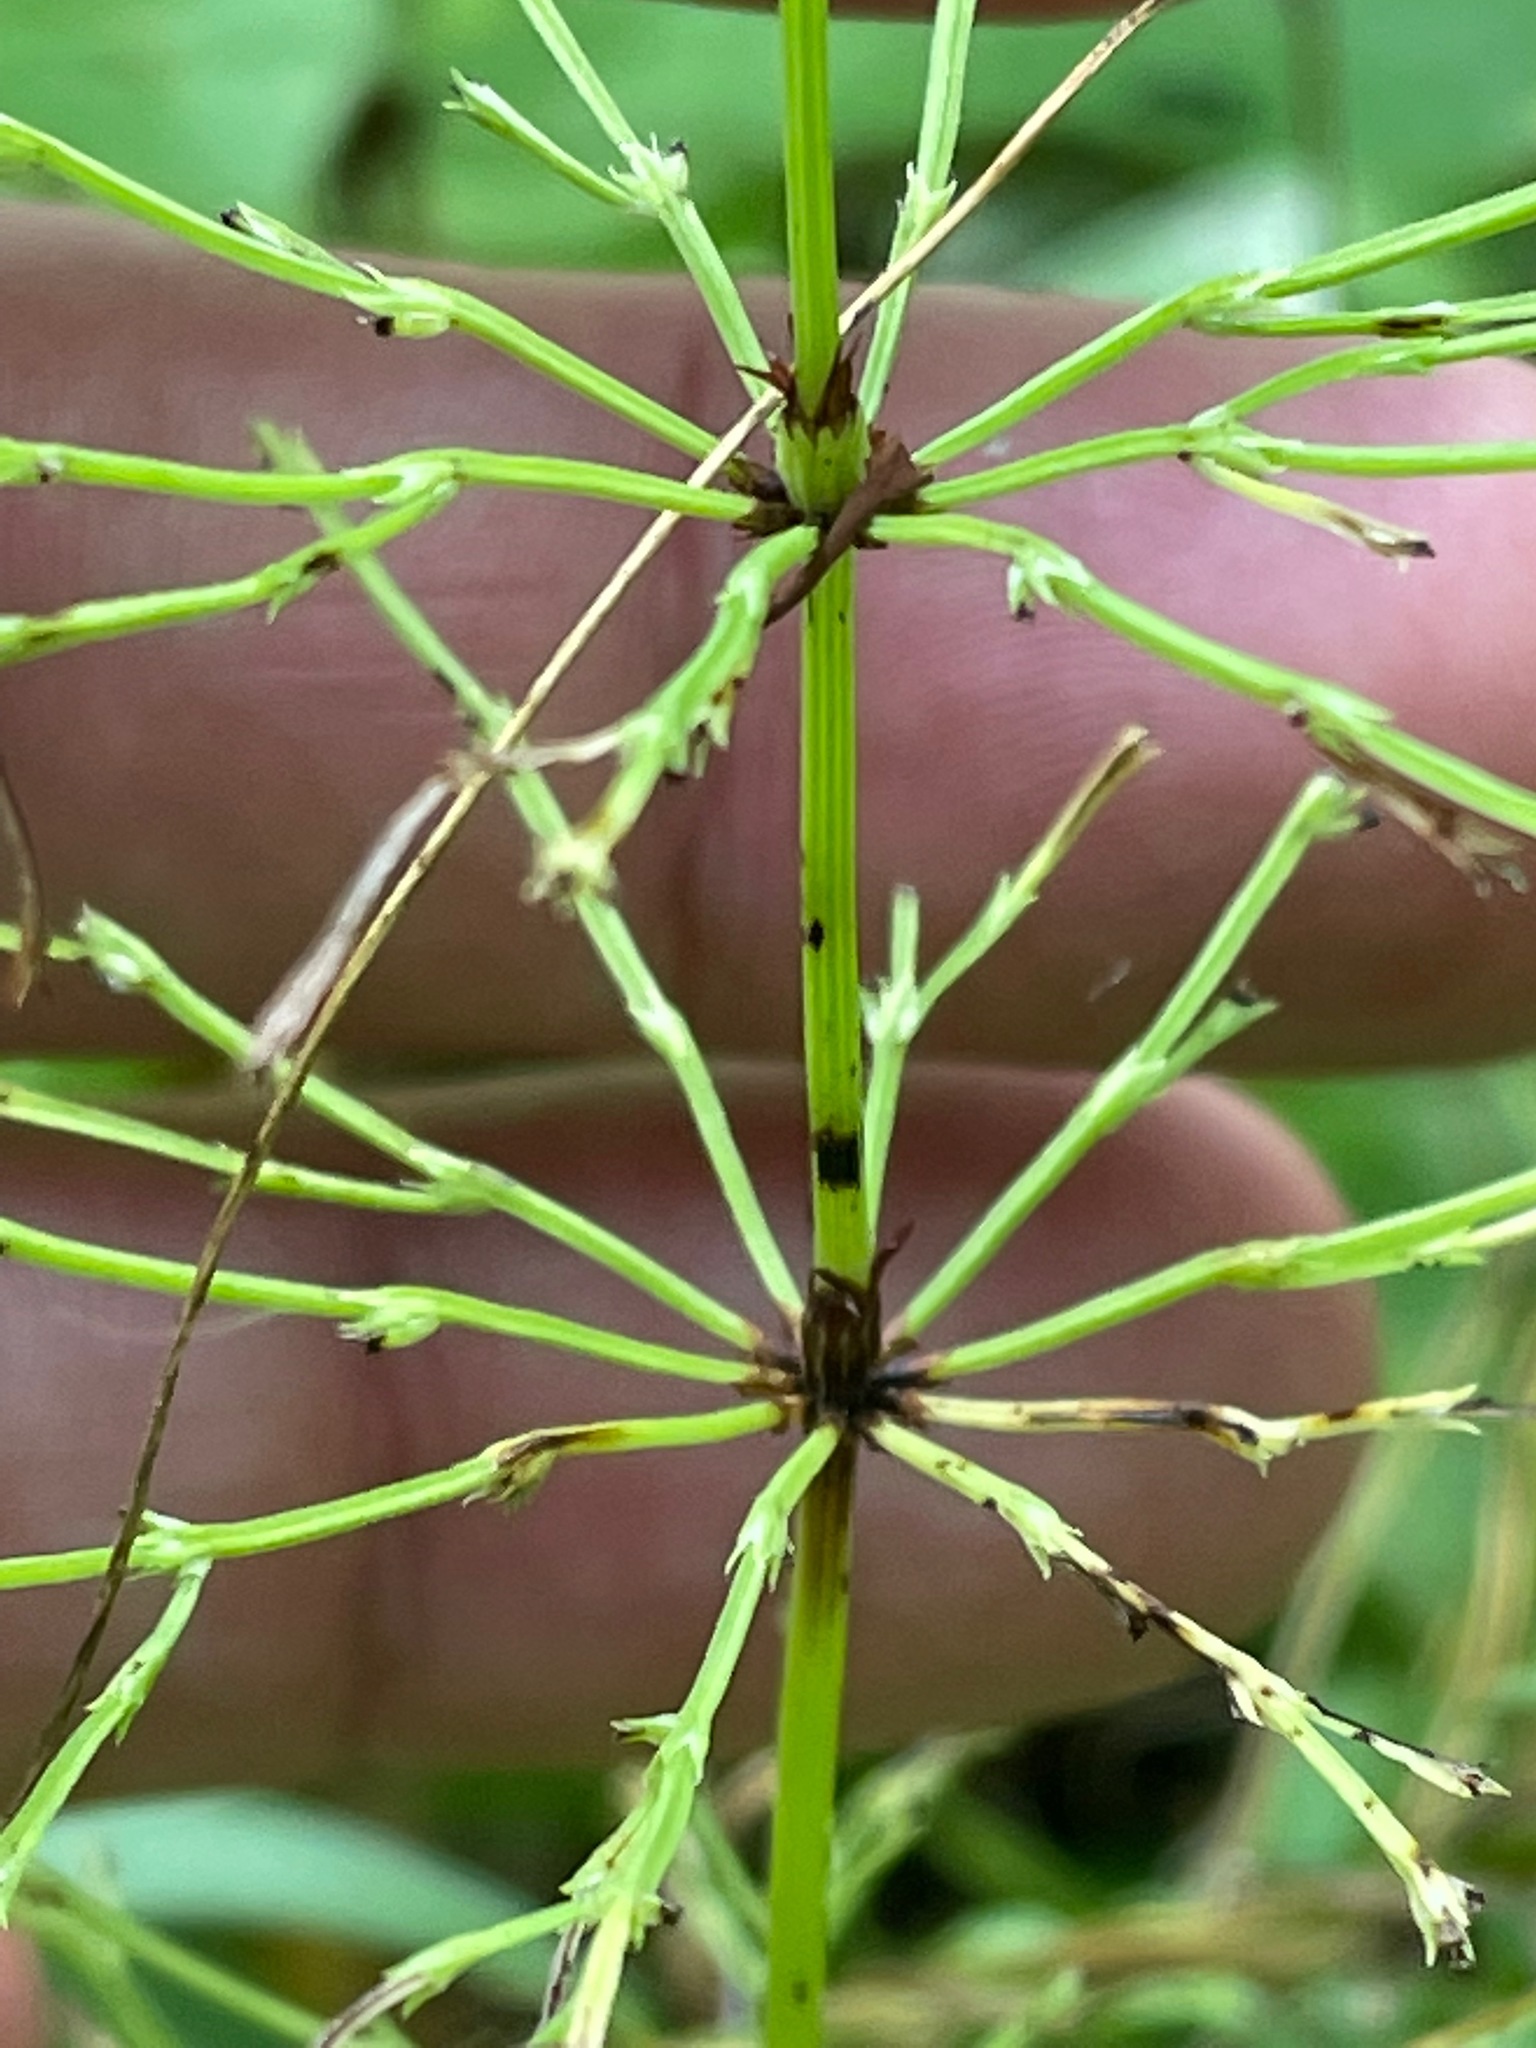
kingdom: Plantae
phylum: Tracheophyta
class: Polypodiopsida
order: Equisetales
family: Equisetaceae
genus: Equisetum
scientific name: Equisetum sylvaticum
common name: Wood horsetail
